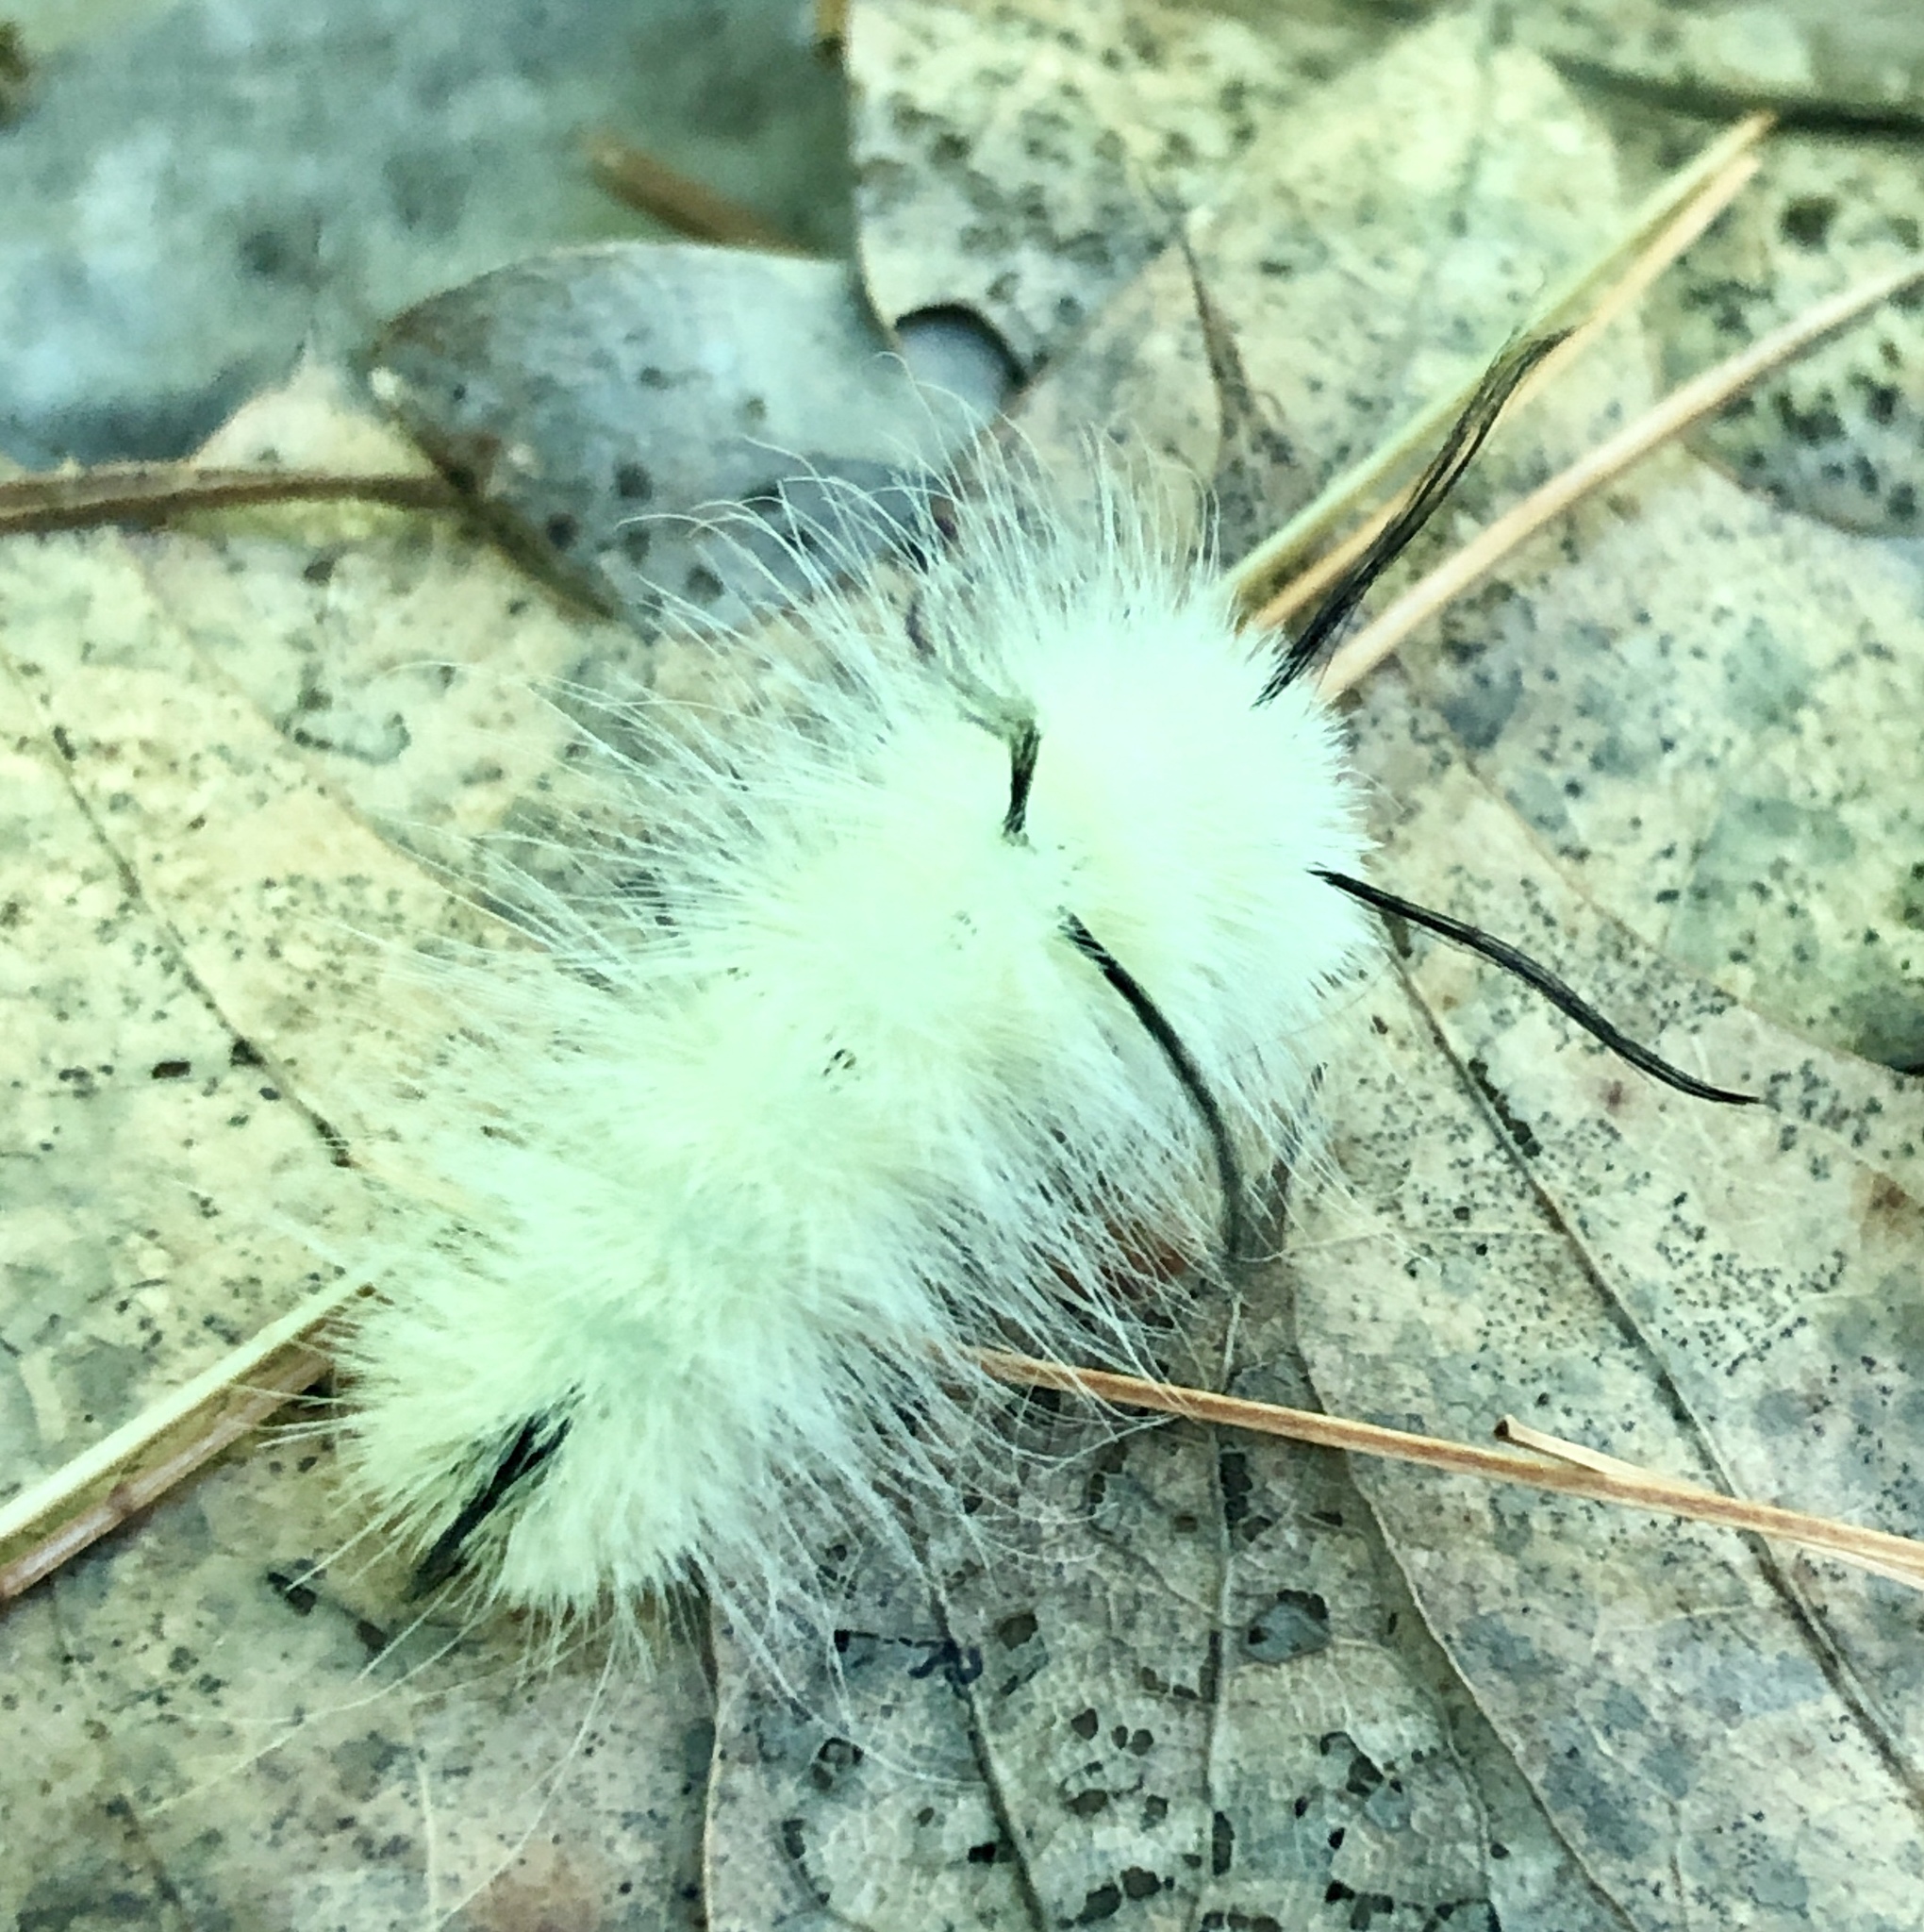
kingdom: Animalia
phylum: Arthropoda
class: Insecta
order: Lepidoptera
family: Noctuidae
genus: Acronicta
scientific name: Acronicta americana
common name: American dagger
